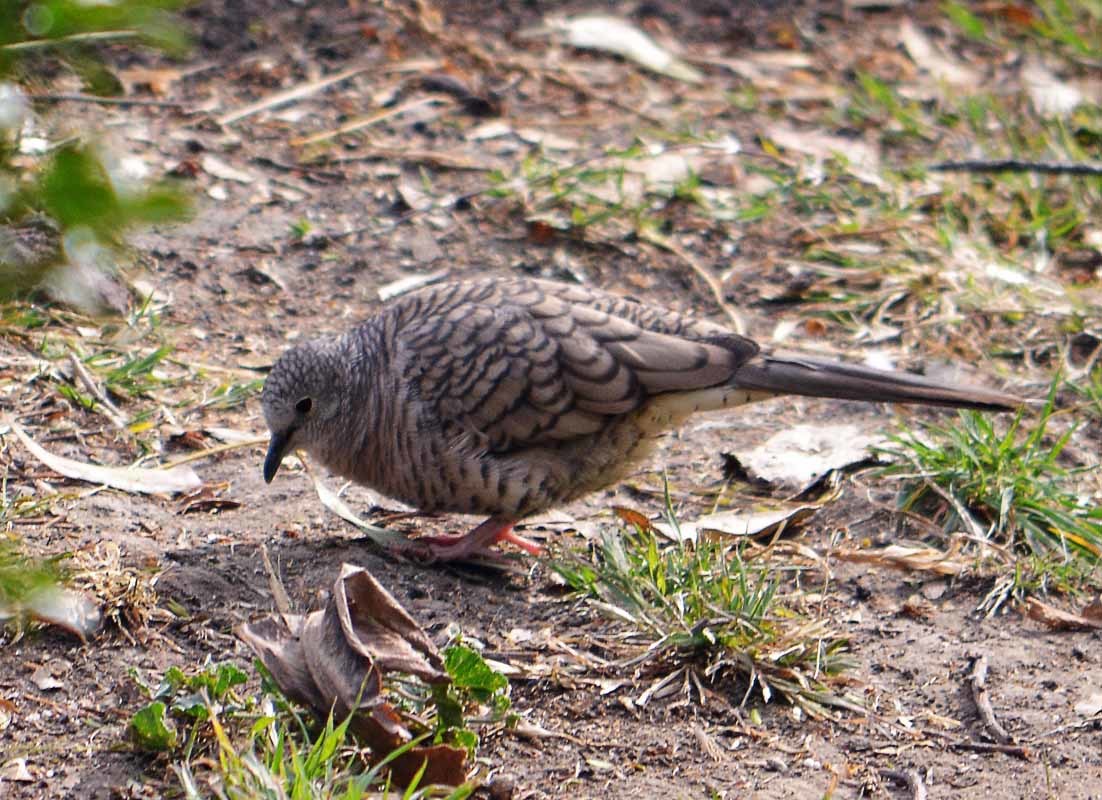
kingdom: Animalia
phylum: Chordata
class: Aves
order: Columbiformes
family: Columbidae
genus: Columbina
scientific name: Columbina inca
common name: Inca dove
